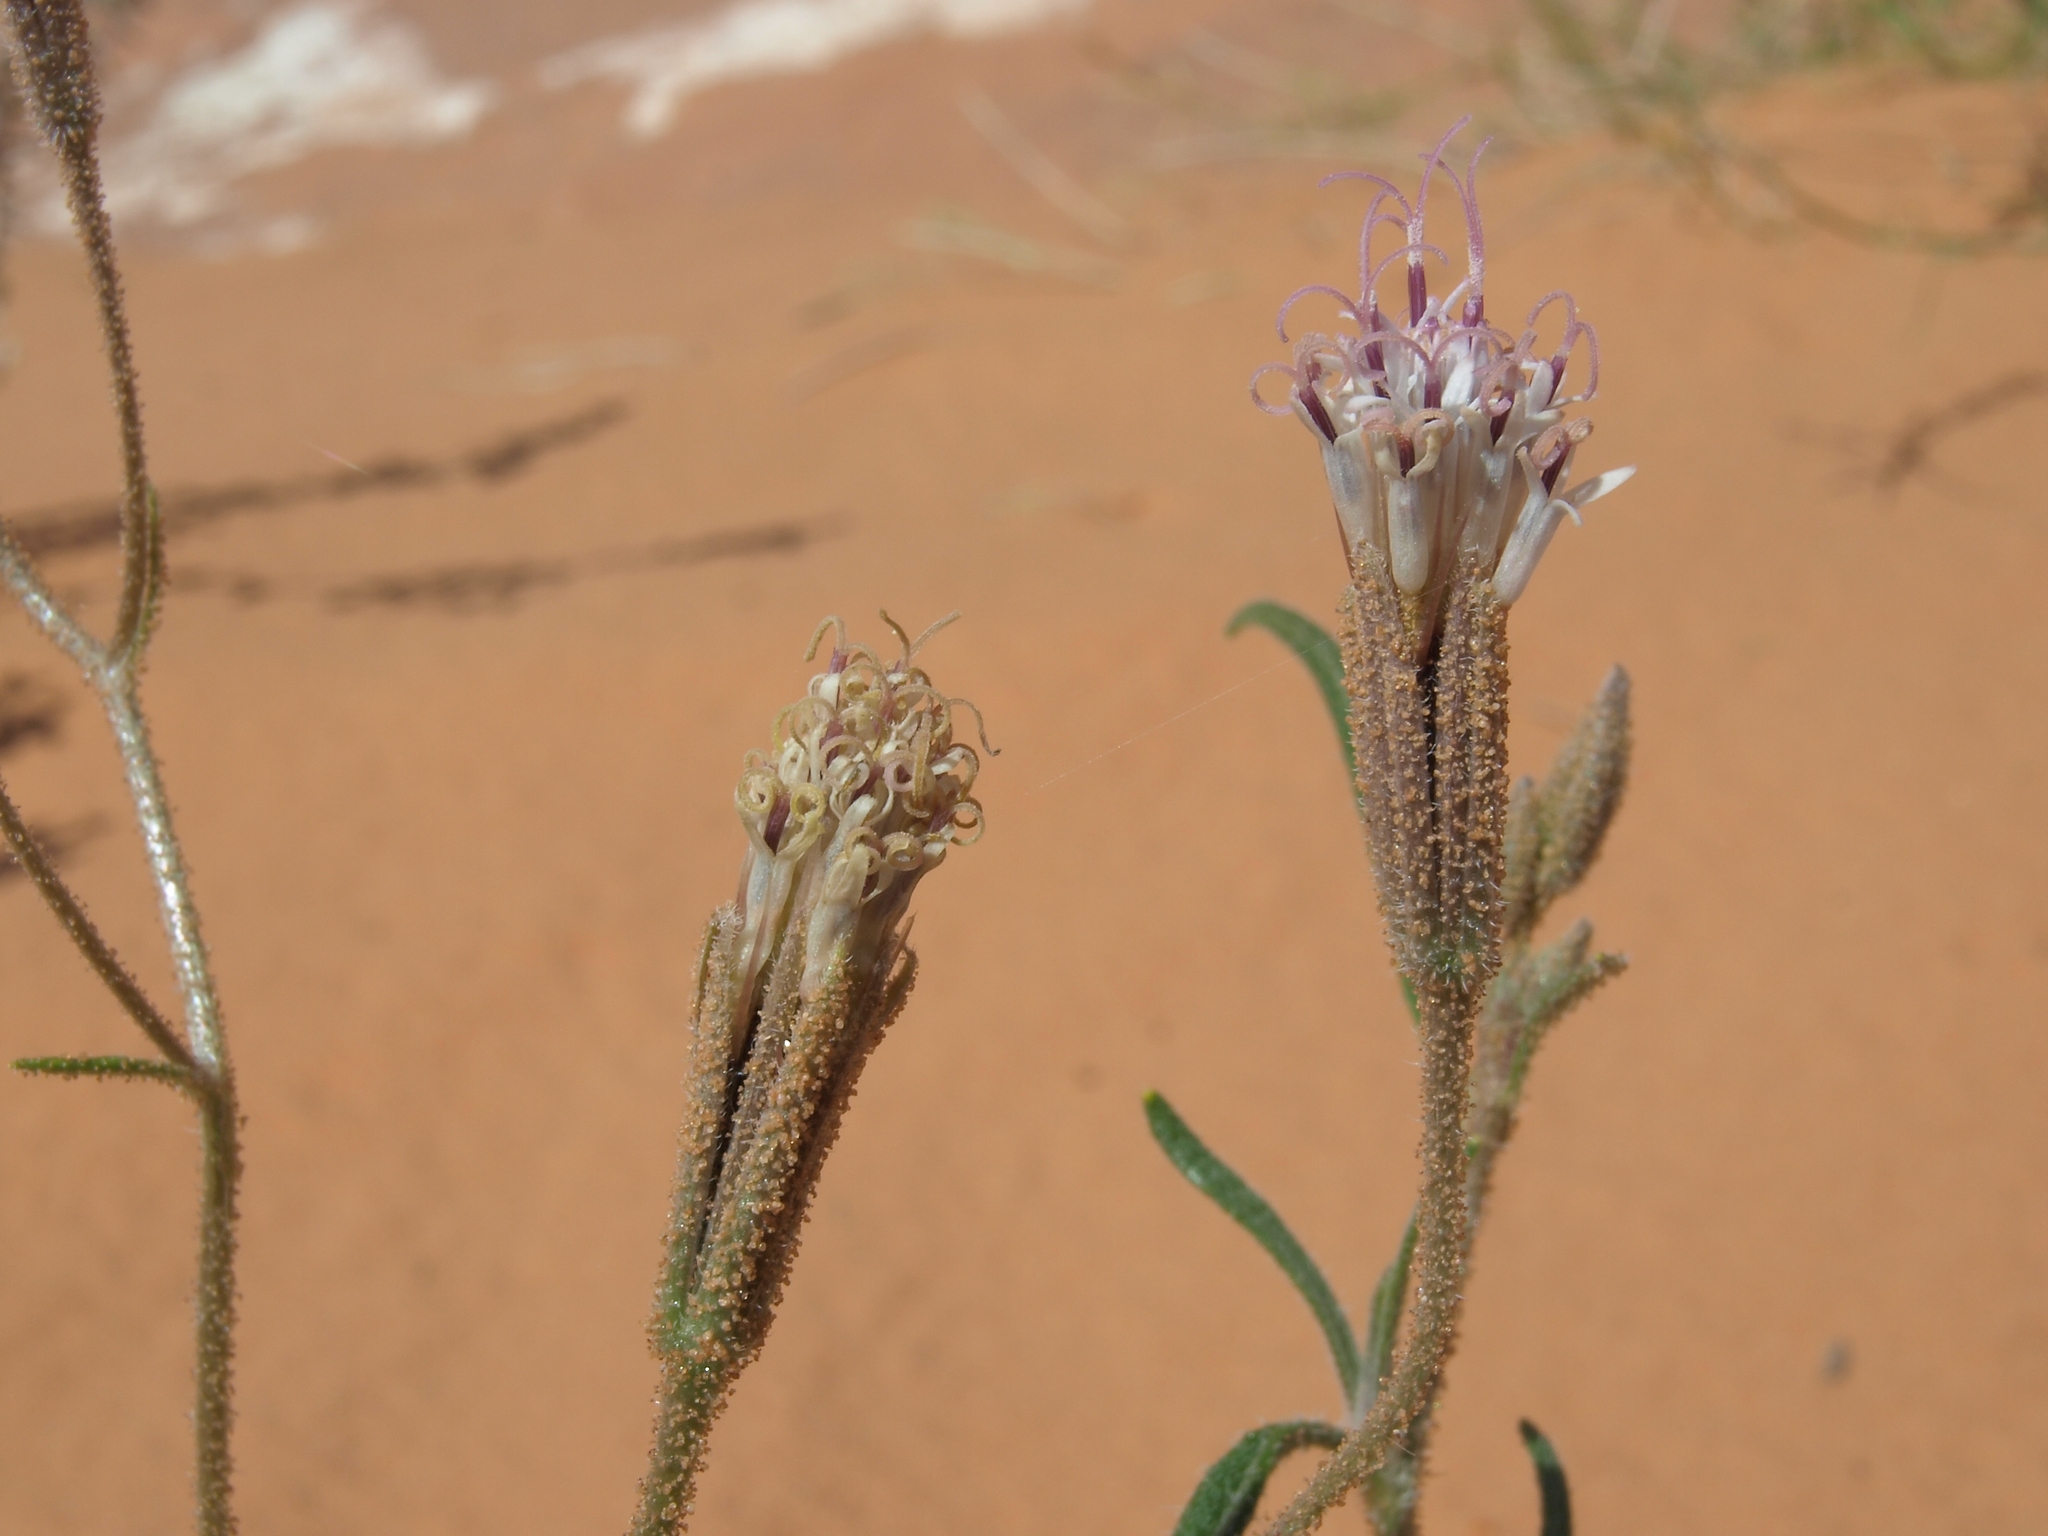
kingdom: Plantae
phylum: Tracheophyta
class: Magnoliopsida
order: Asterales
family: Asteraceae
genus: Palafoxia
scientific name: Palafoxia arida
